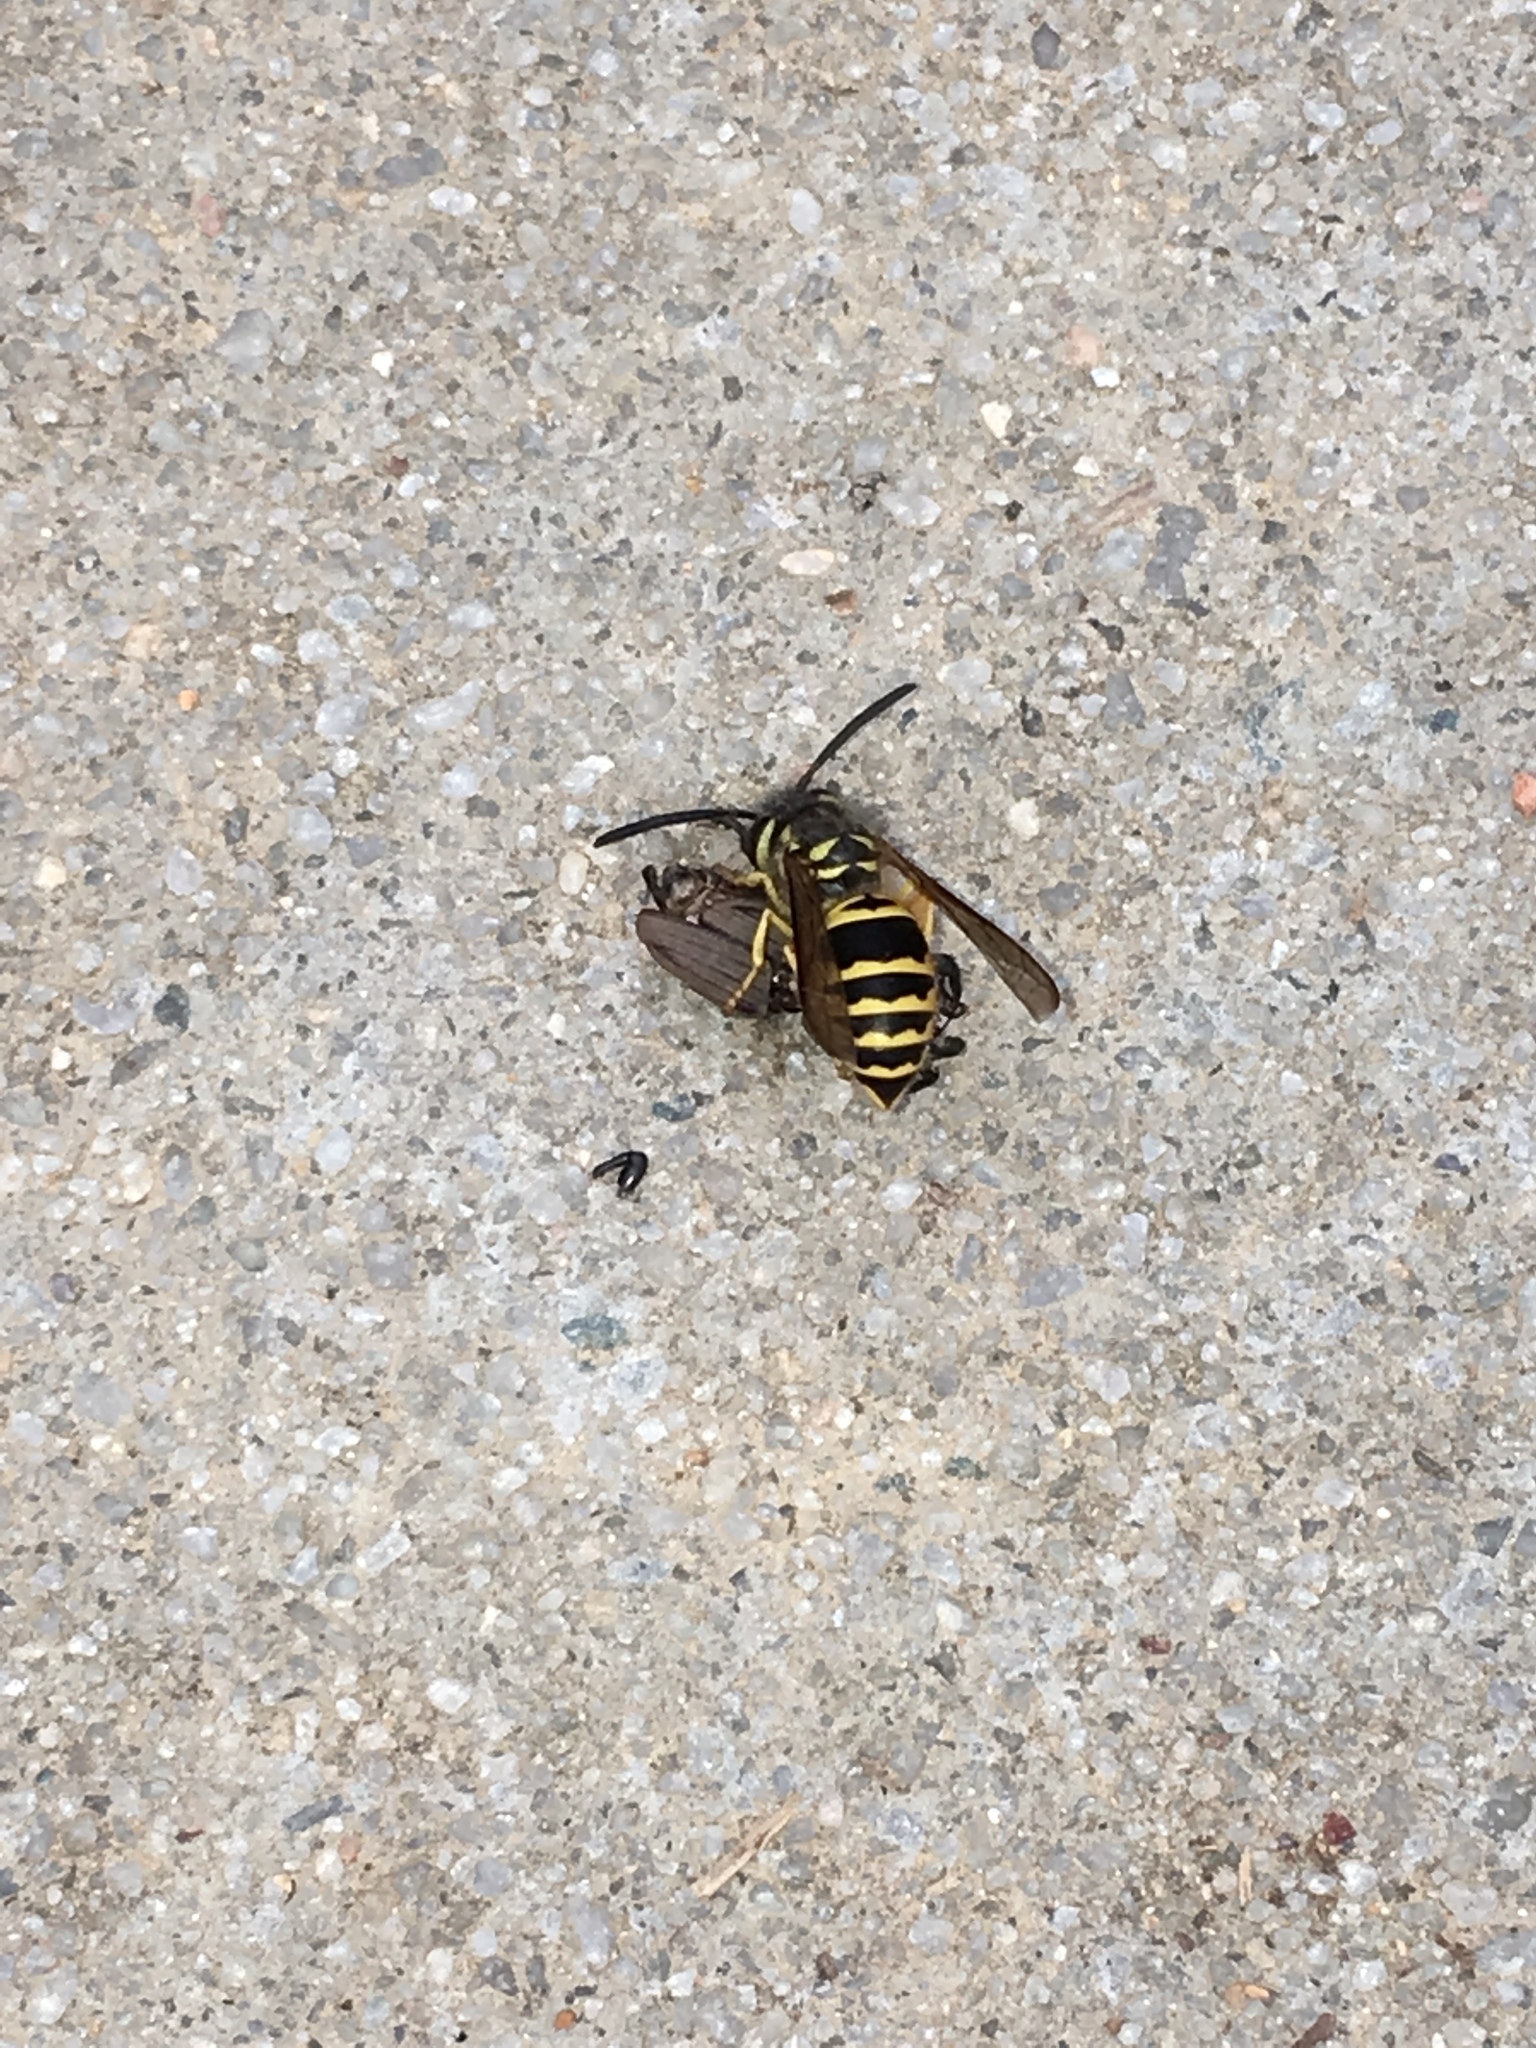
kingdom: Animalia
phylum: Arthropoda
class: Insecta
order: Hymenoptera
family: Vespidae
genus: Vespula
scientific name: Vespula maculifrons
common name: Eastern yellowjacket
